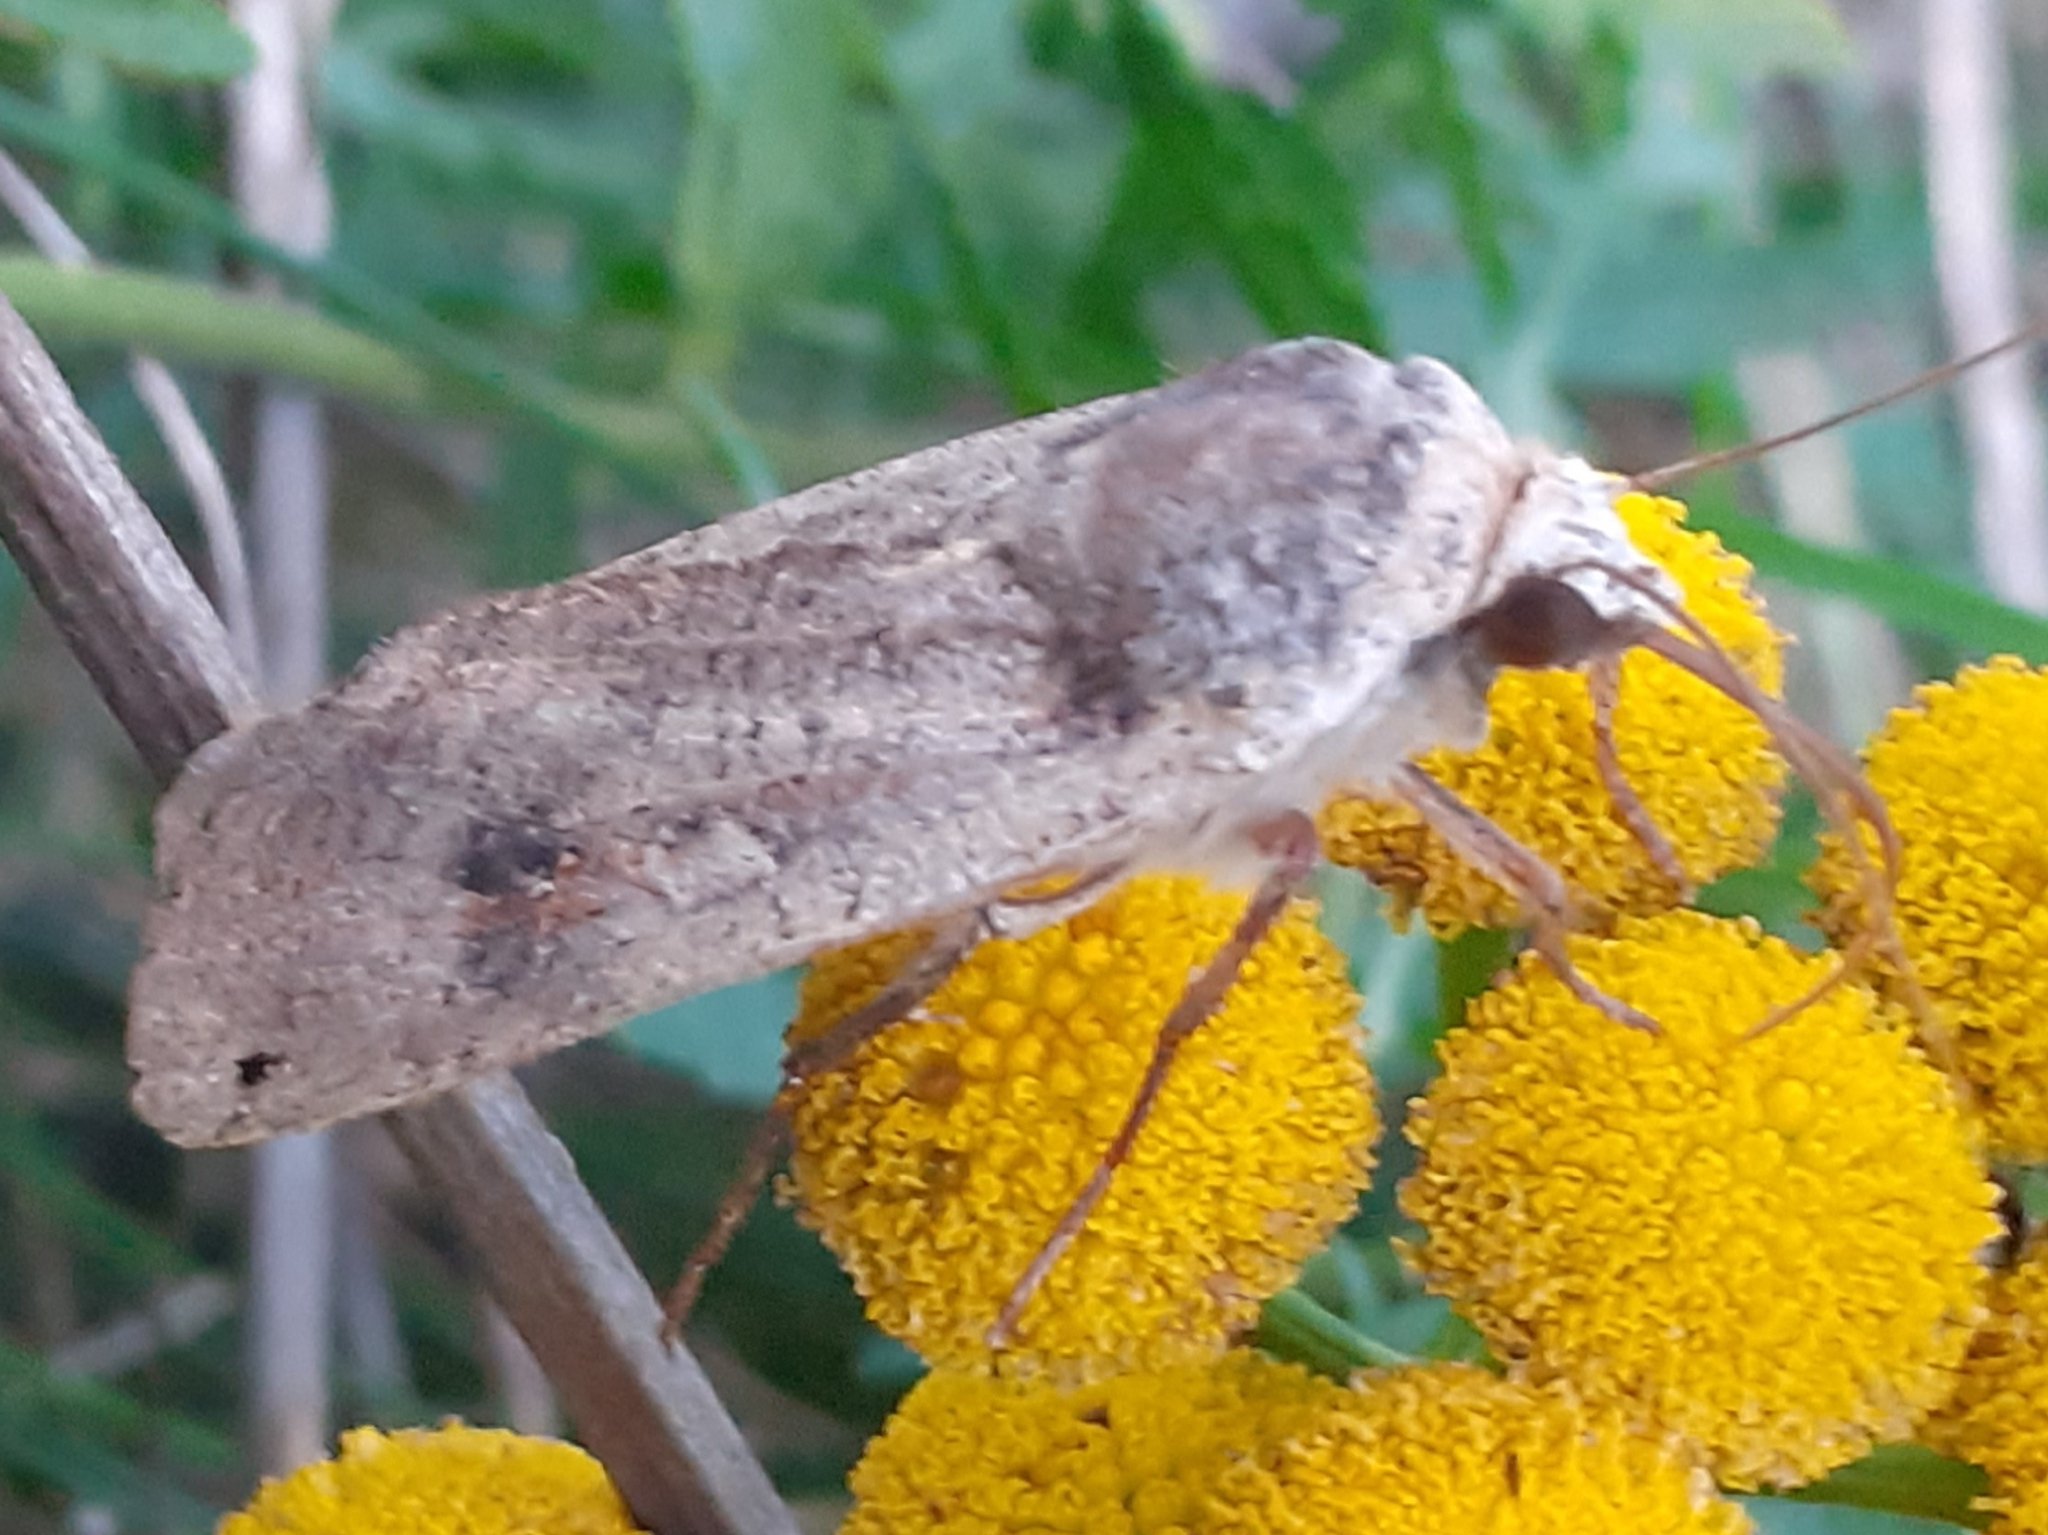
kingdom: Animalia
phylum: Arthropoda
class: Insecta
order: Lepidoptera
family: Noctuidae
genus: Noctua
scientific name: Noctua pronuba
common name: Large yellow underwing
